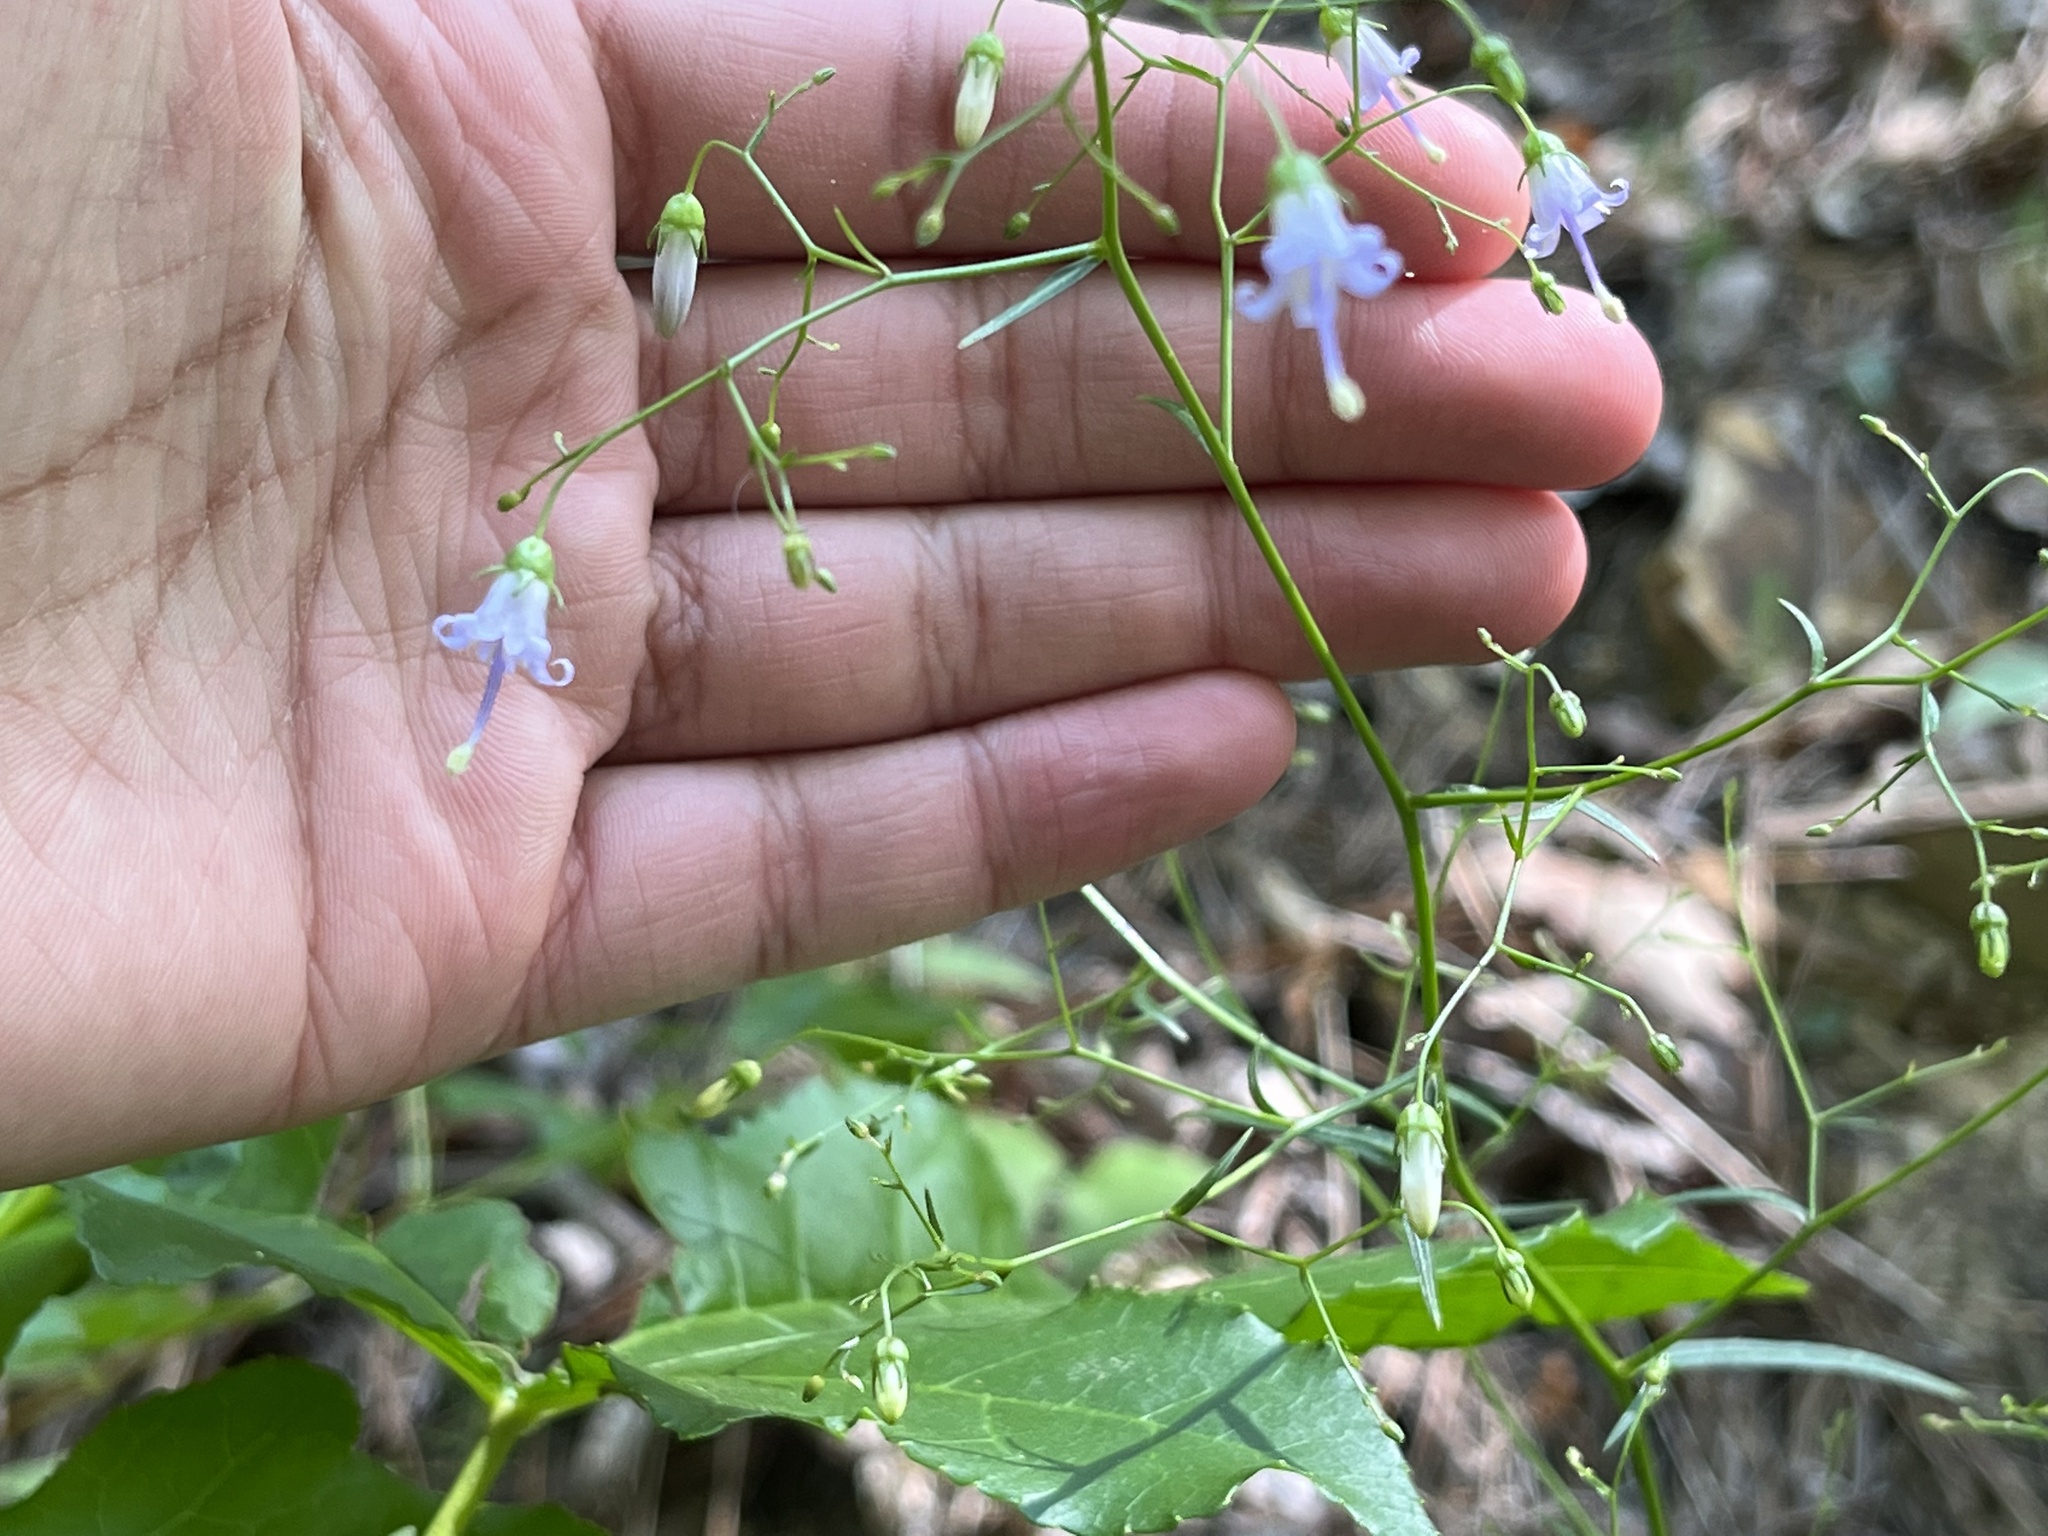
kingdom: Plantae
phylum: Tracheophyta
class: Magnoliopsida
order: Asterales
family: Campanulaceae
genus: Campanula
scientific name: Campanula divaricata
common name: Appalachian bellflower
